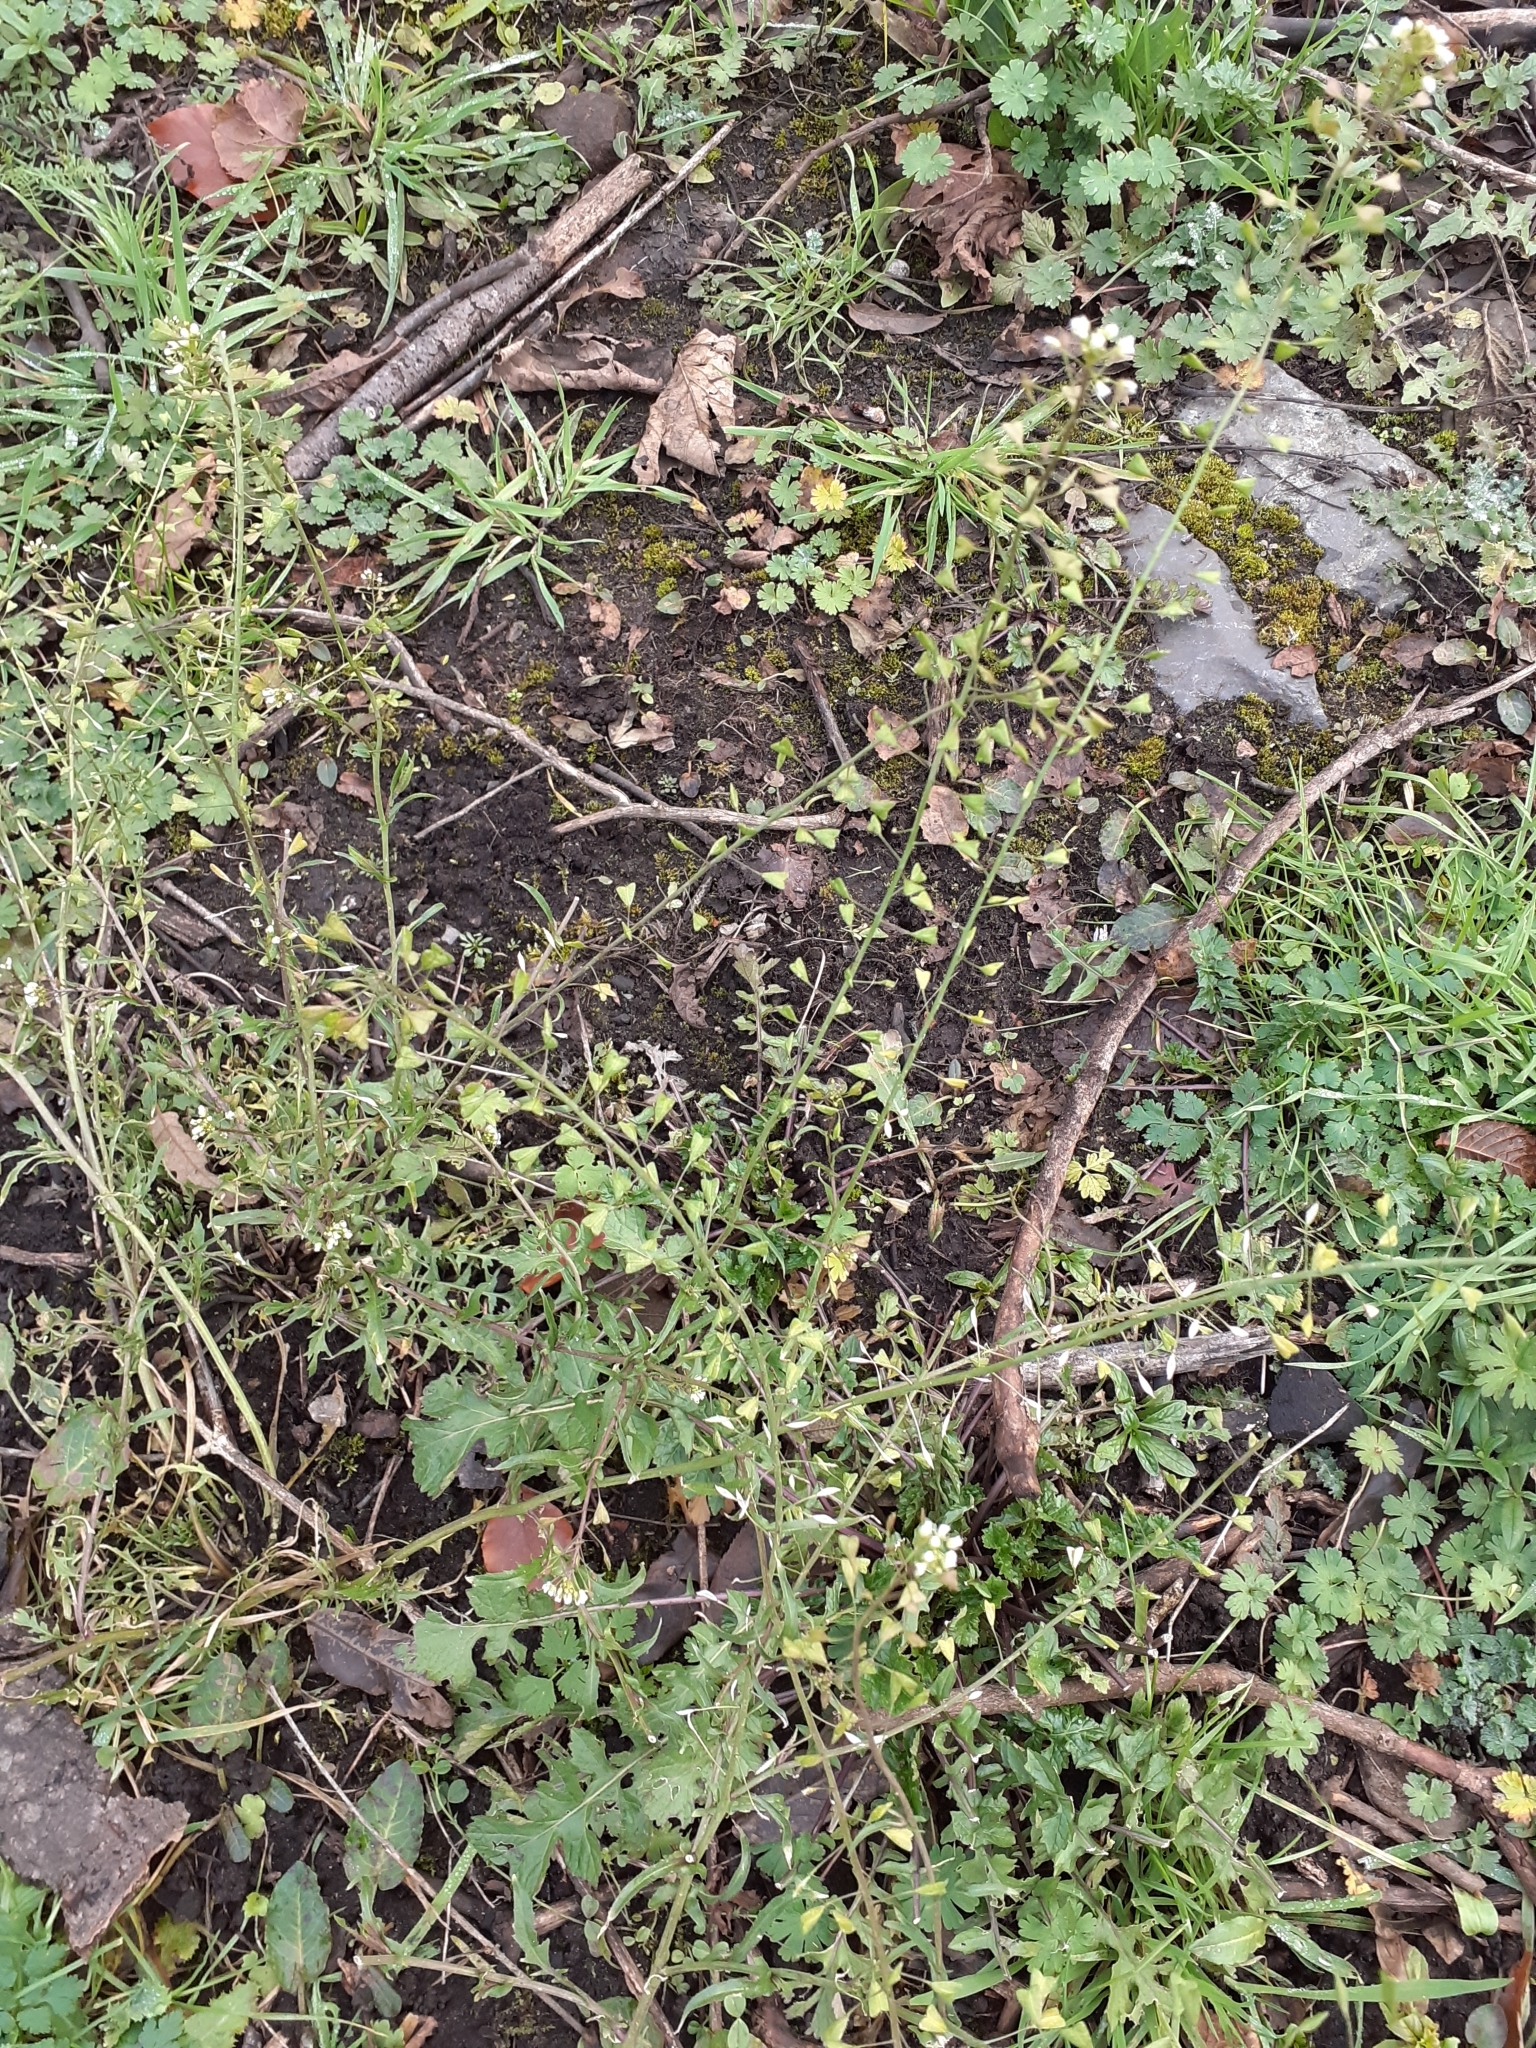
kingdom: Plantae
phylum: Tracheophyta
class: Magnoliopsida
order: Brassicales
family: Brassicaceae
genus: Capsella
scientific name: Capsella bursa-pastoris
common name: Shepherd's purse
